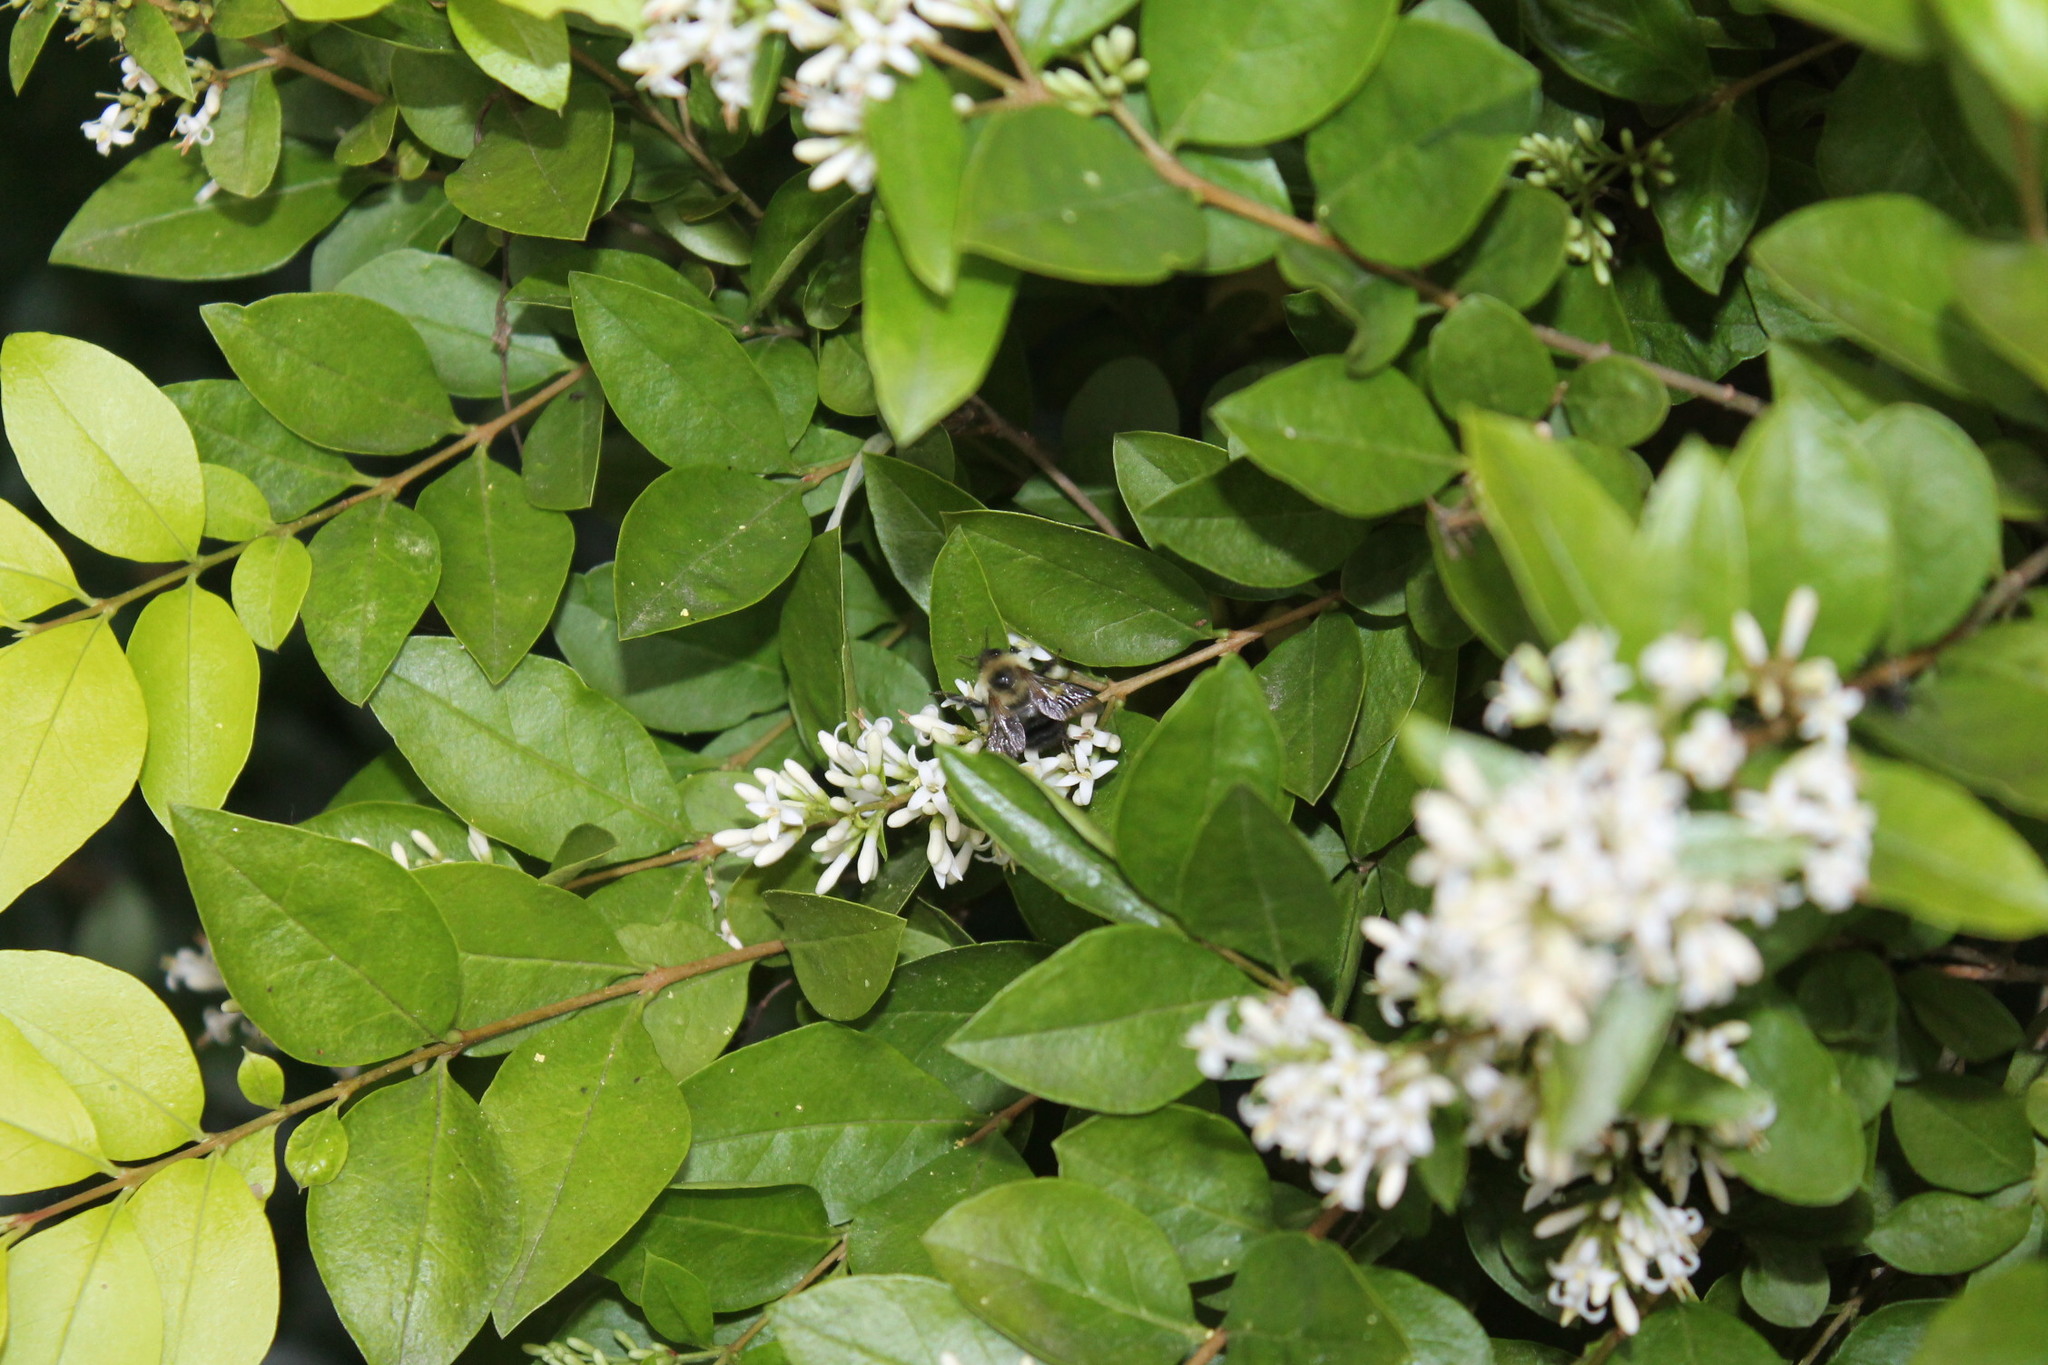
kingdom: Animalia
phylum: Arthropoda
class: Insecta
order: Hymenoptera
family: Apidae
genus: Bombus
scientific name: Bombus bimaculatus
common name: Two-spotted bumble bee
